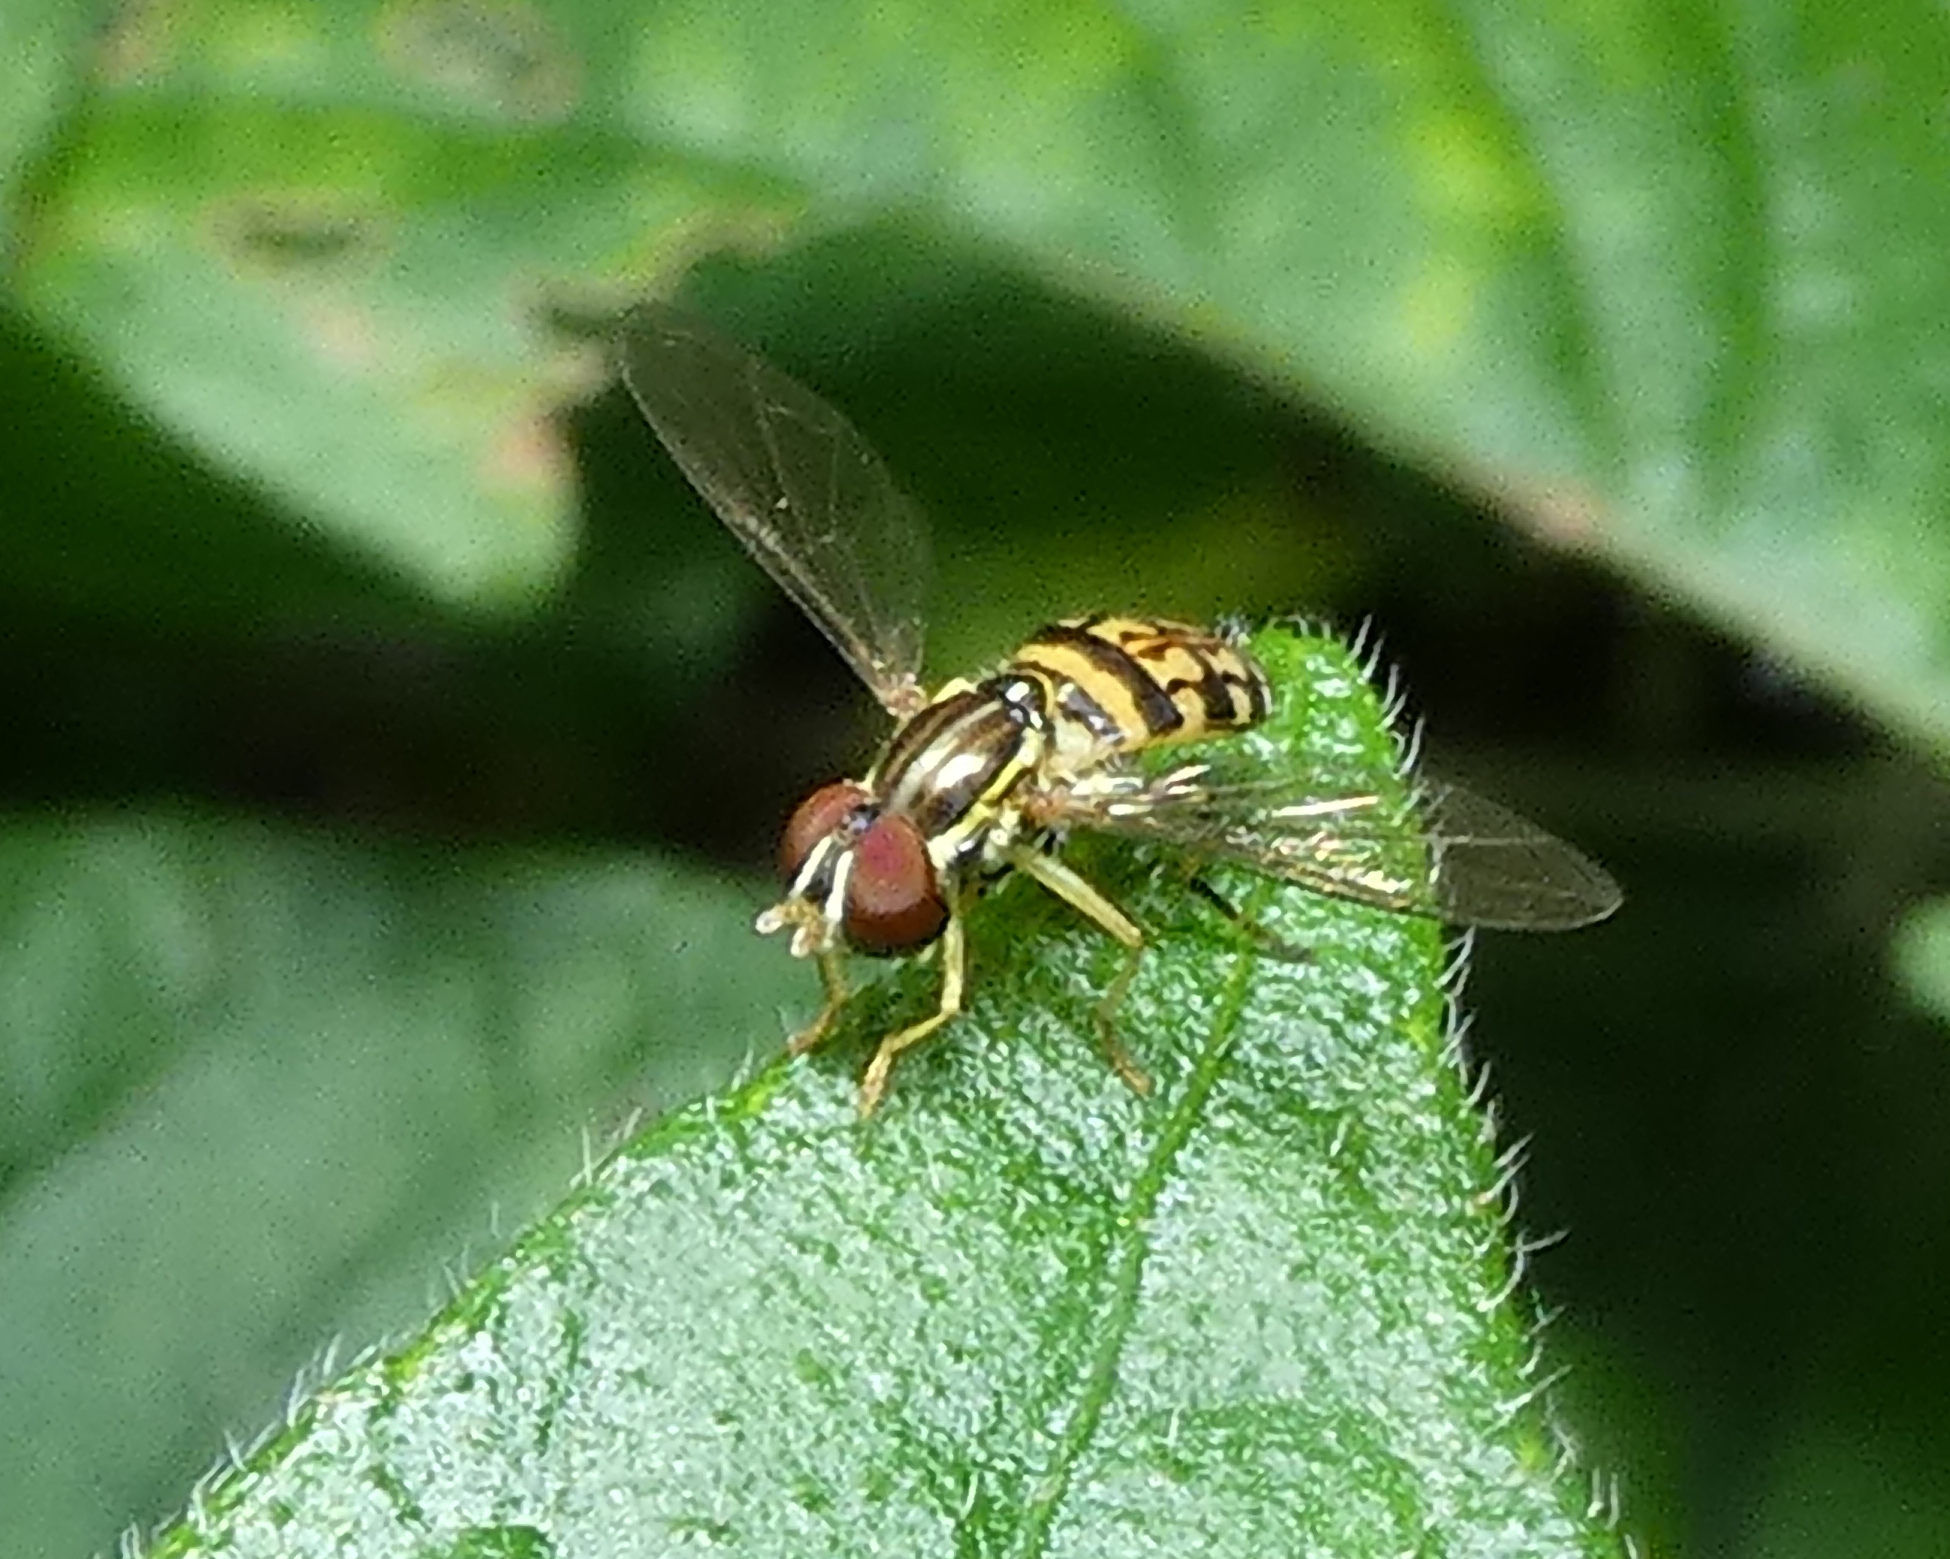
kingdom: Animalia
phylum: Arthropoda
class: Insecta
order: Diptera
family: Syrphidae
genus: Toxomerus
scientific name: Toxomerus pictus
